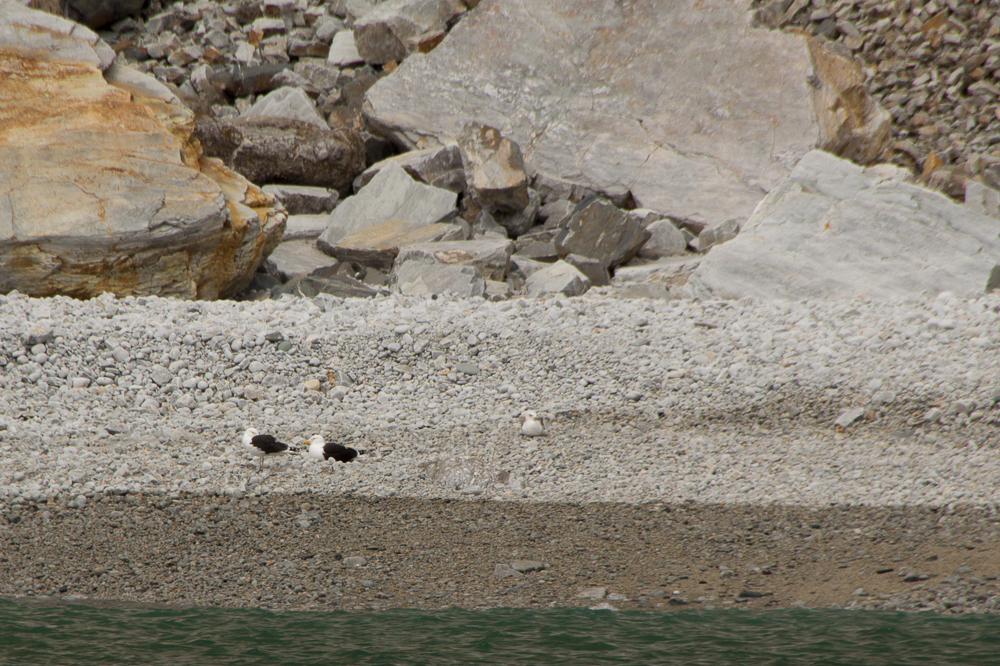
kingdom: Animalia
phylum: Chordata
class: Aves
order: Charadriiformes
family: Laridae
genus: Larus
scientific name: Larus marinus
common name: Great black-backed gull
